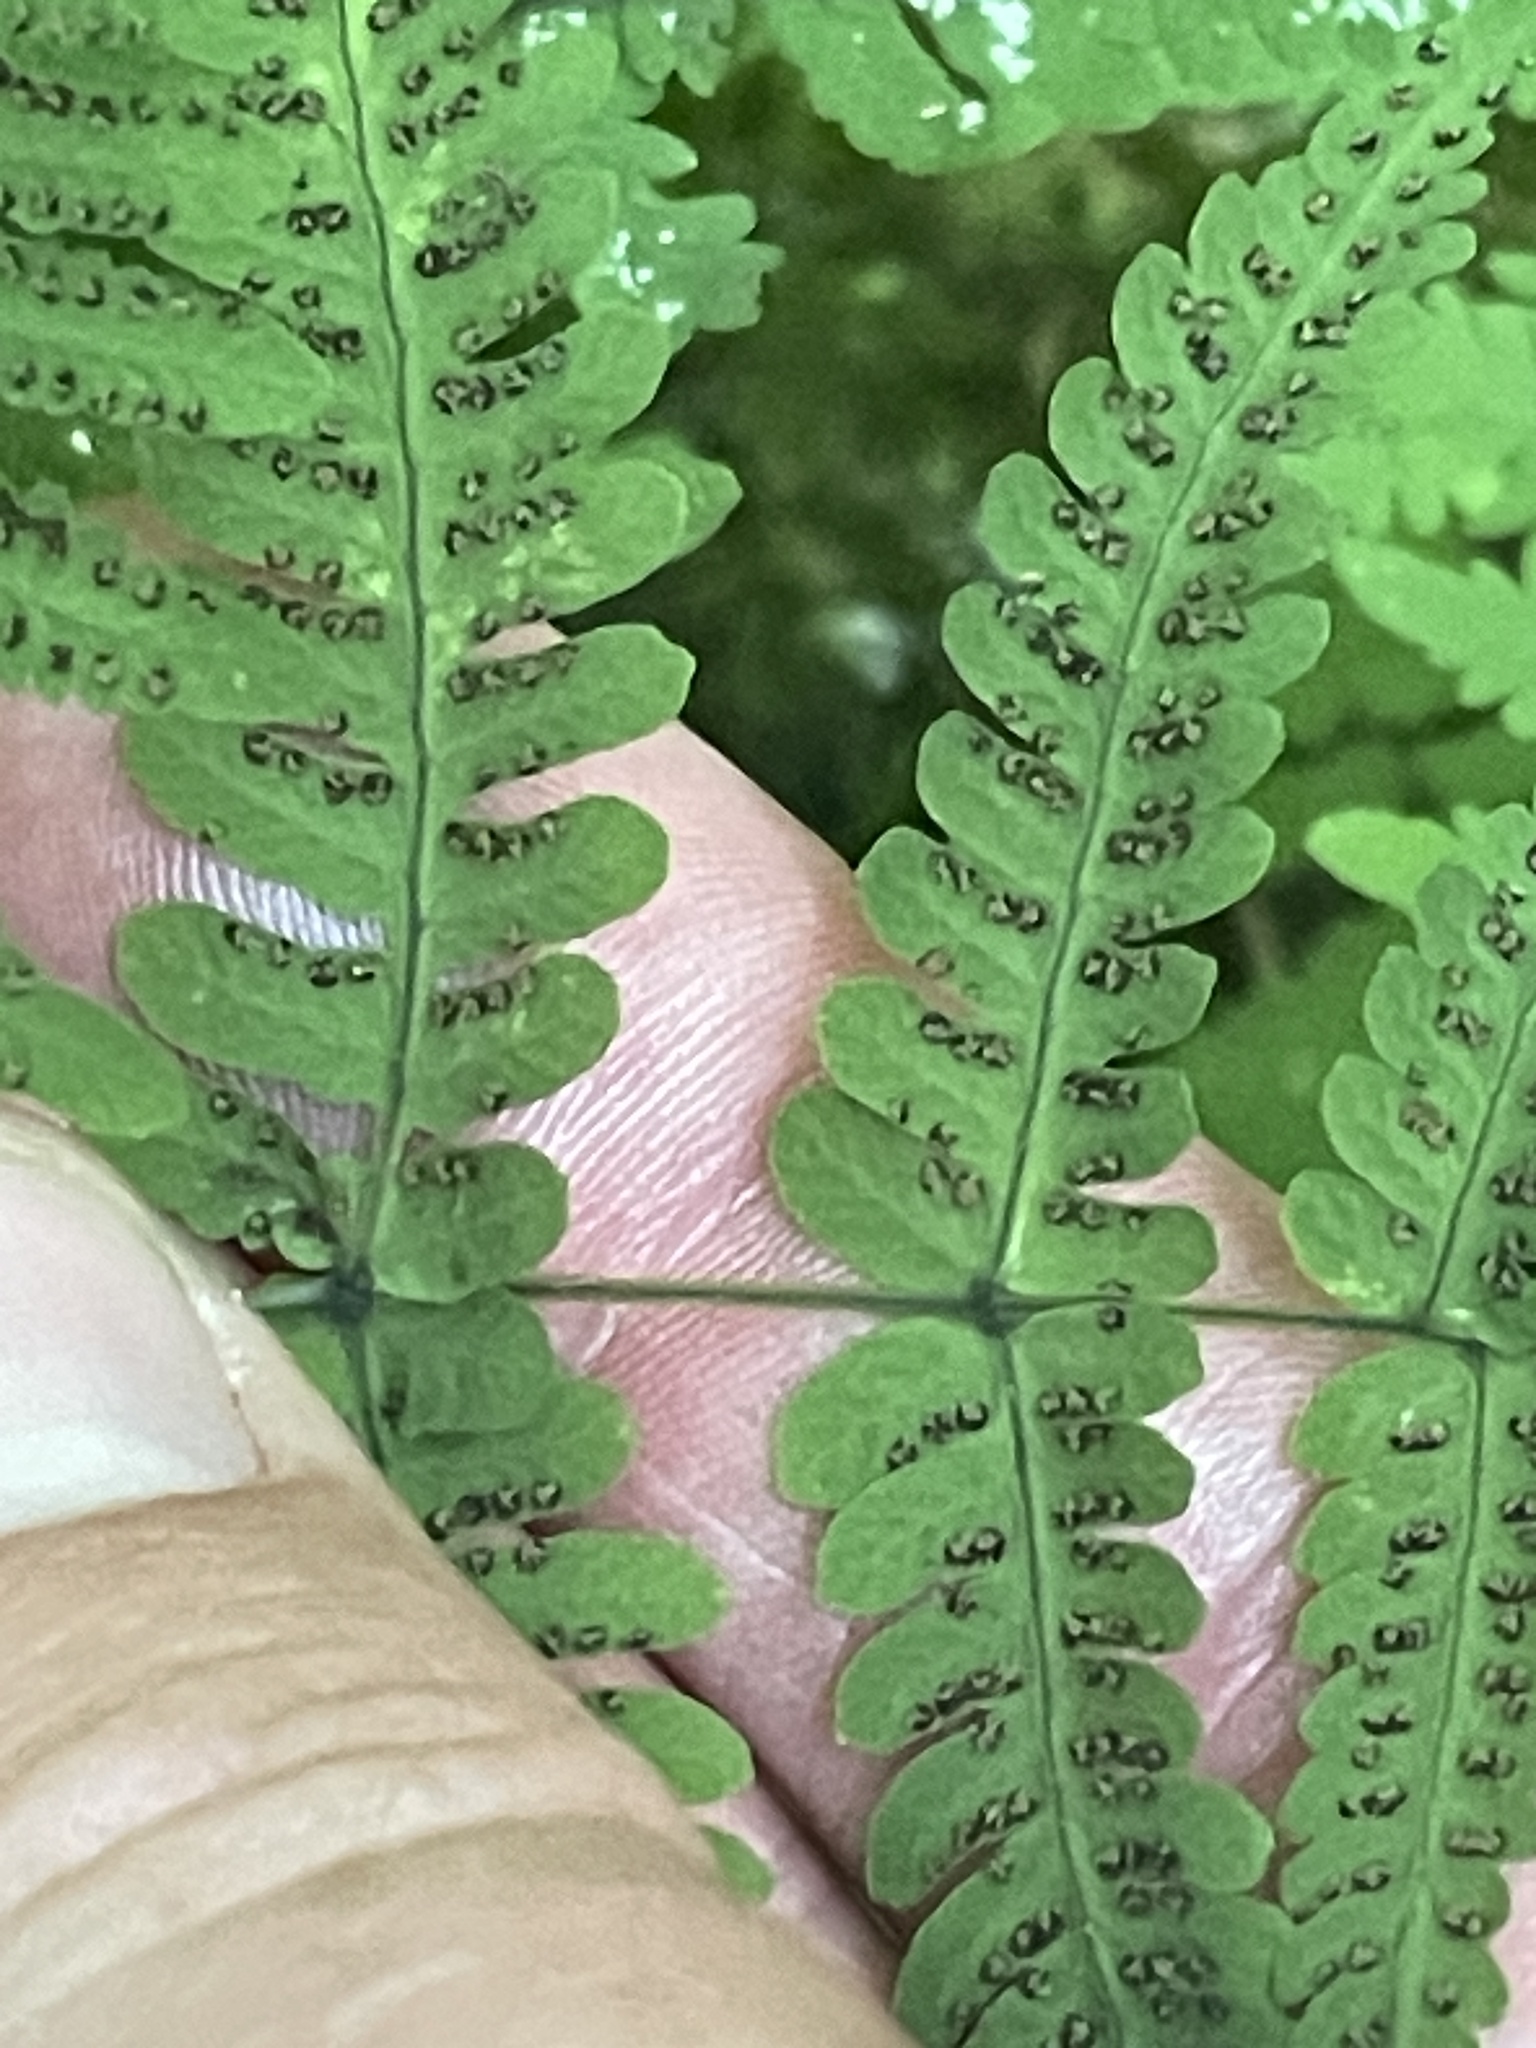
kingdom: Plantae
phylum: Tracheophyta
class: Polypodiopsida
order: Polypodiales
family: Cystopteridaceae
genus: Gymnocarpium
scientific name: Gymnocarpium dryopteris
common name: Oak fern
